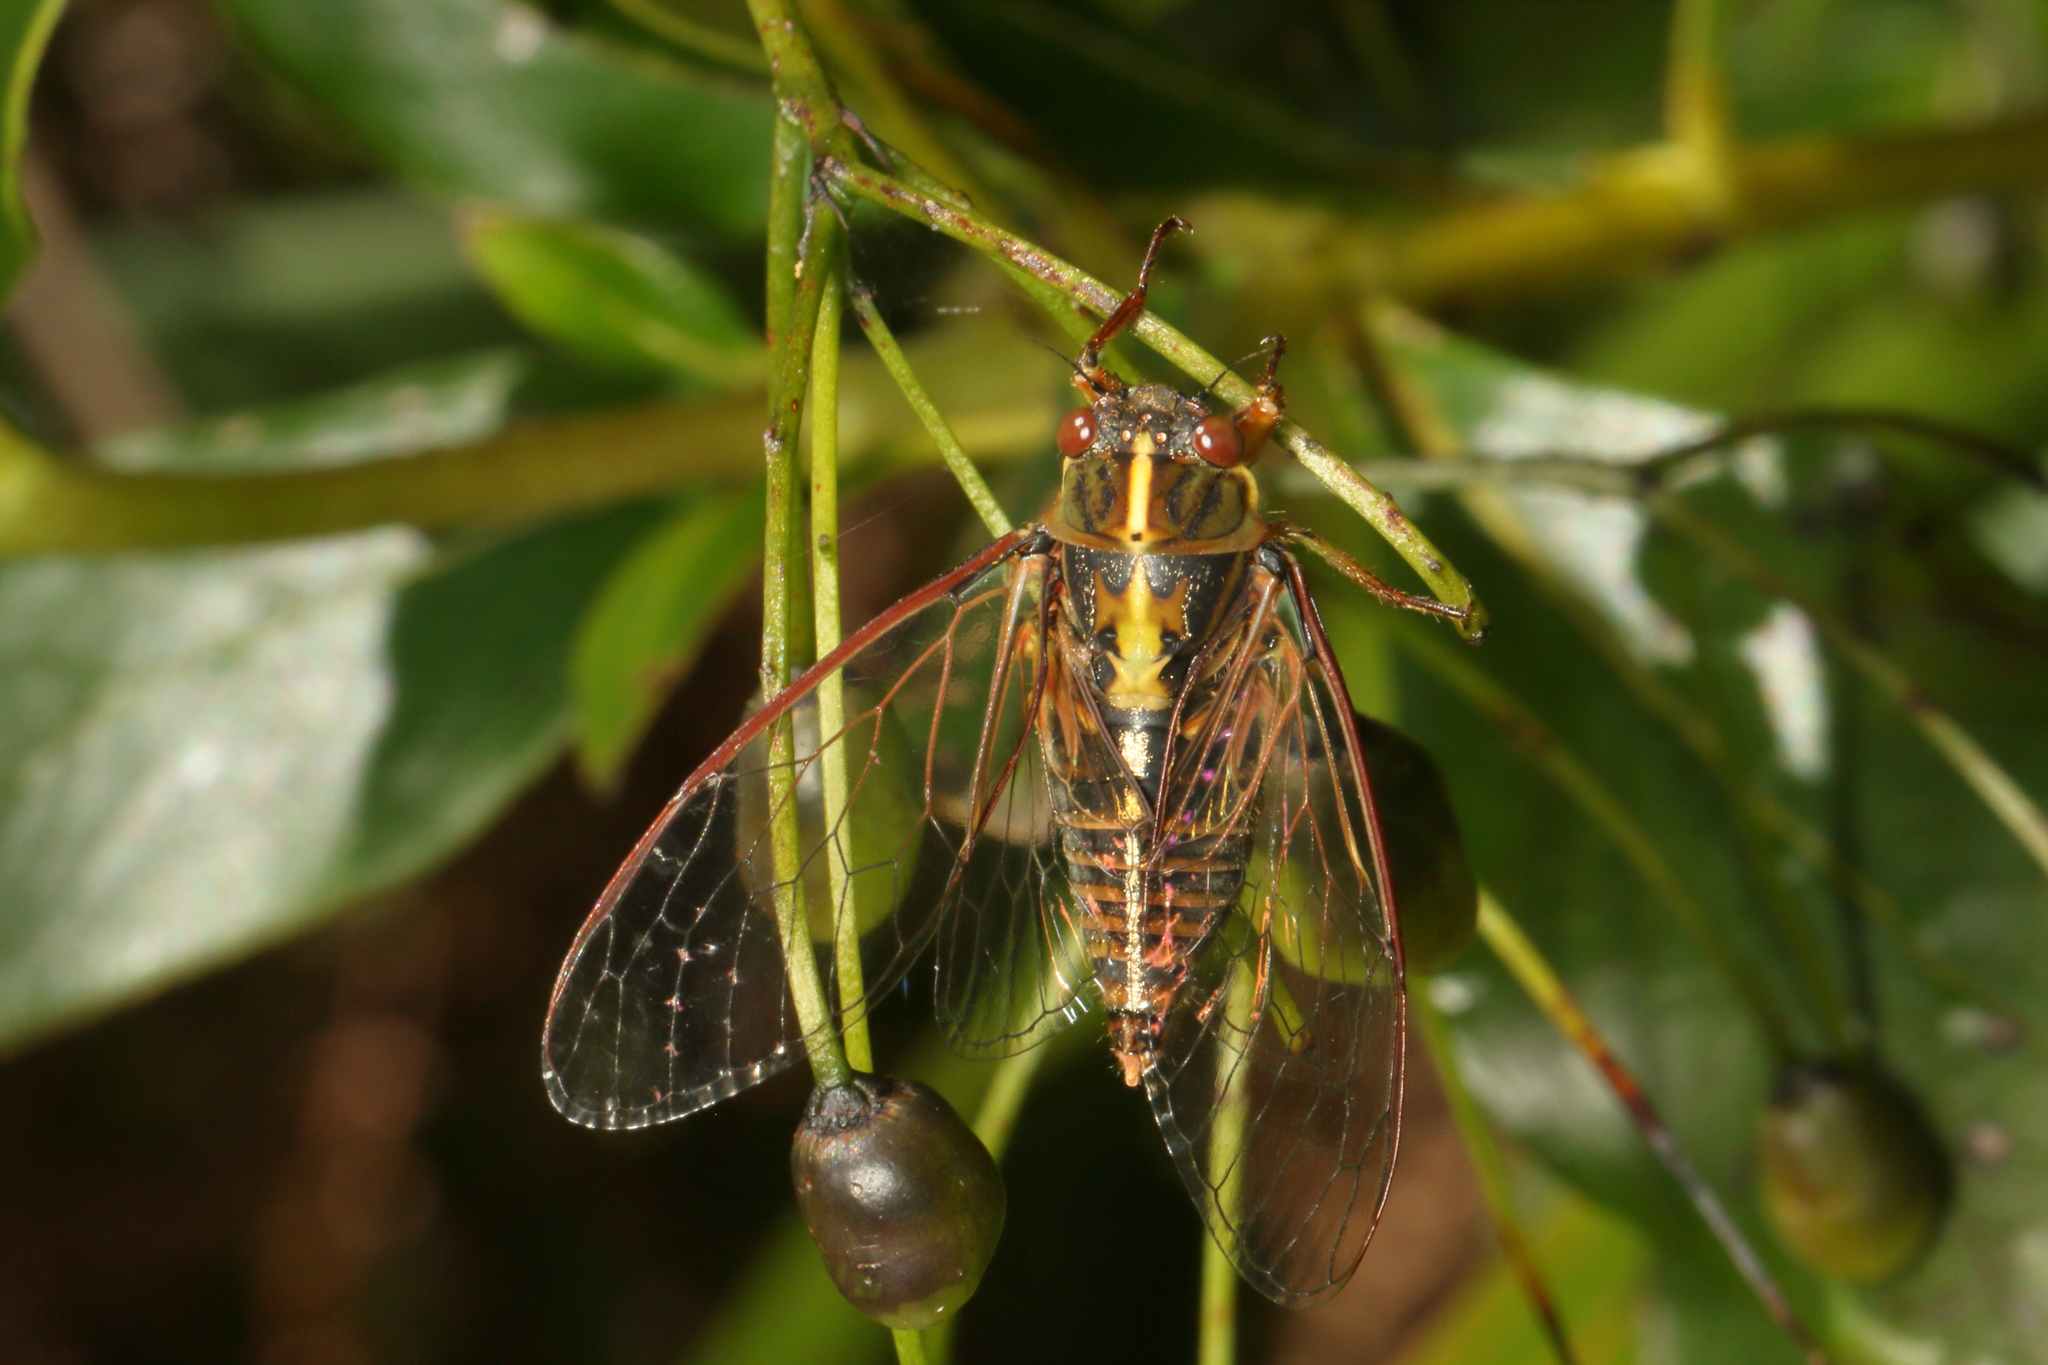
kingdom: Animalia
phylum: Arthropoda
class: Insecta
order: Hemiptera
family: Cicadidae
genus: Kikihia
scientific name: Kikihia muta
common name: Variable cicada
